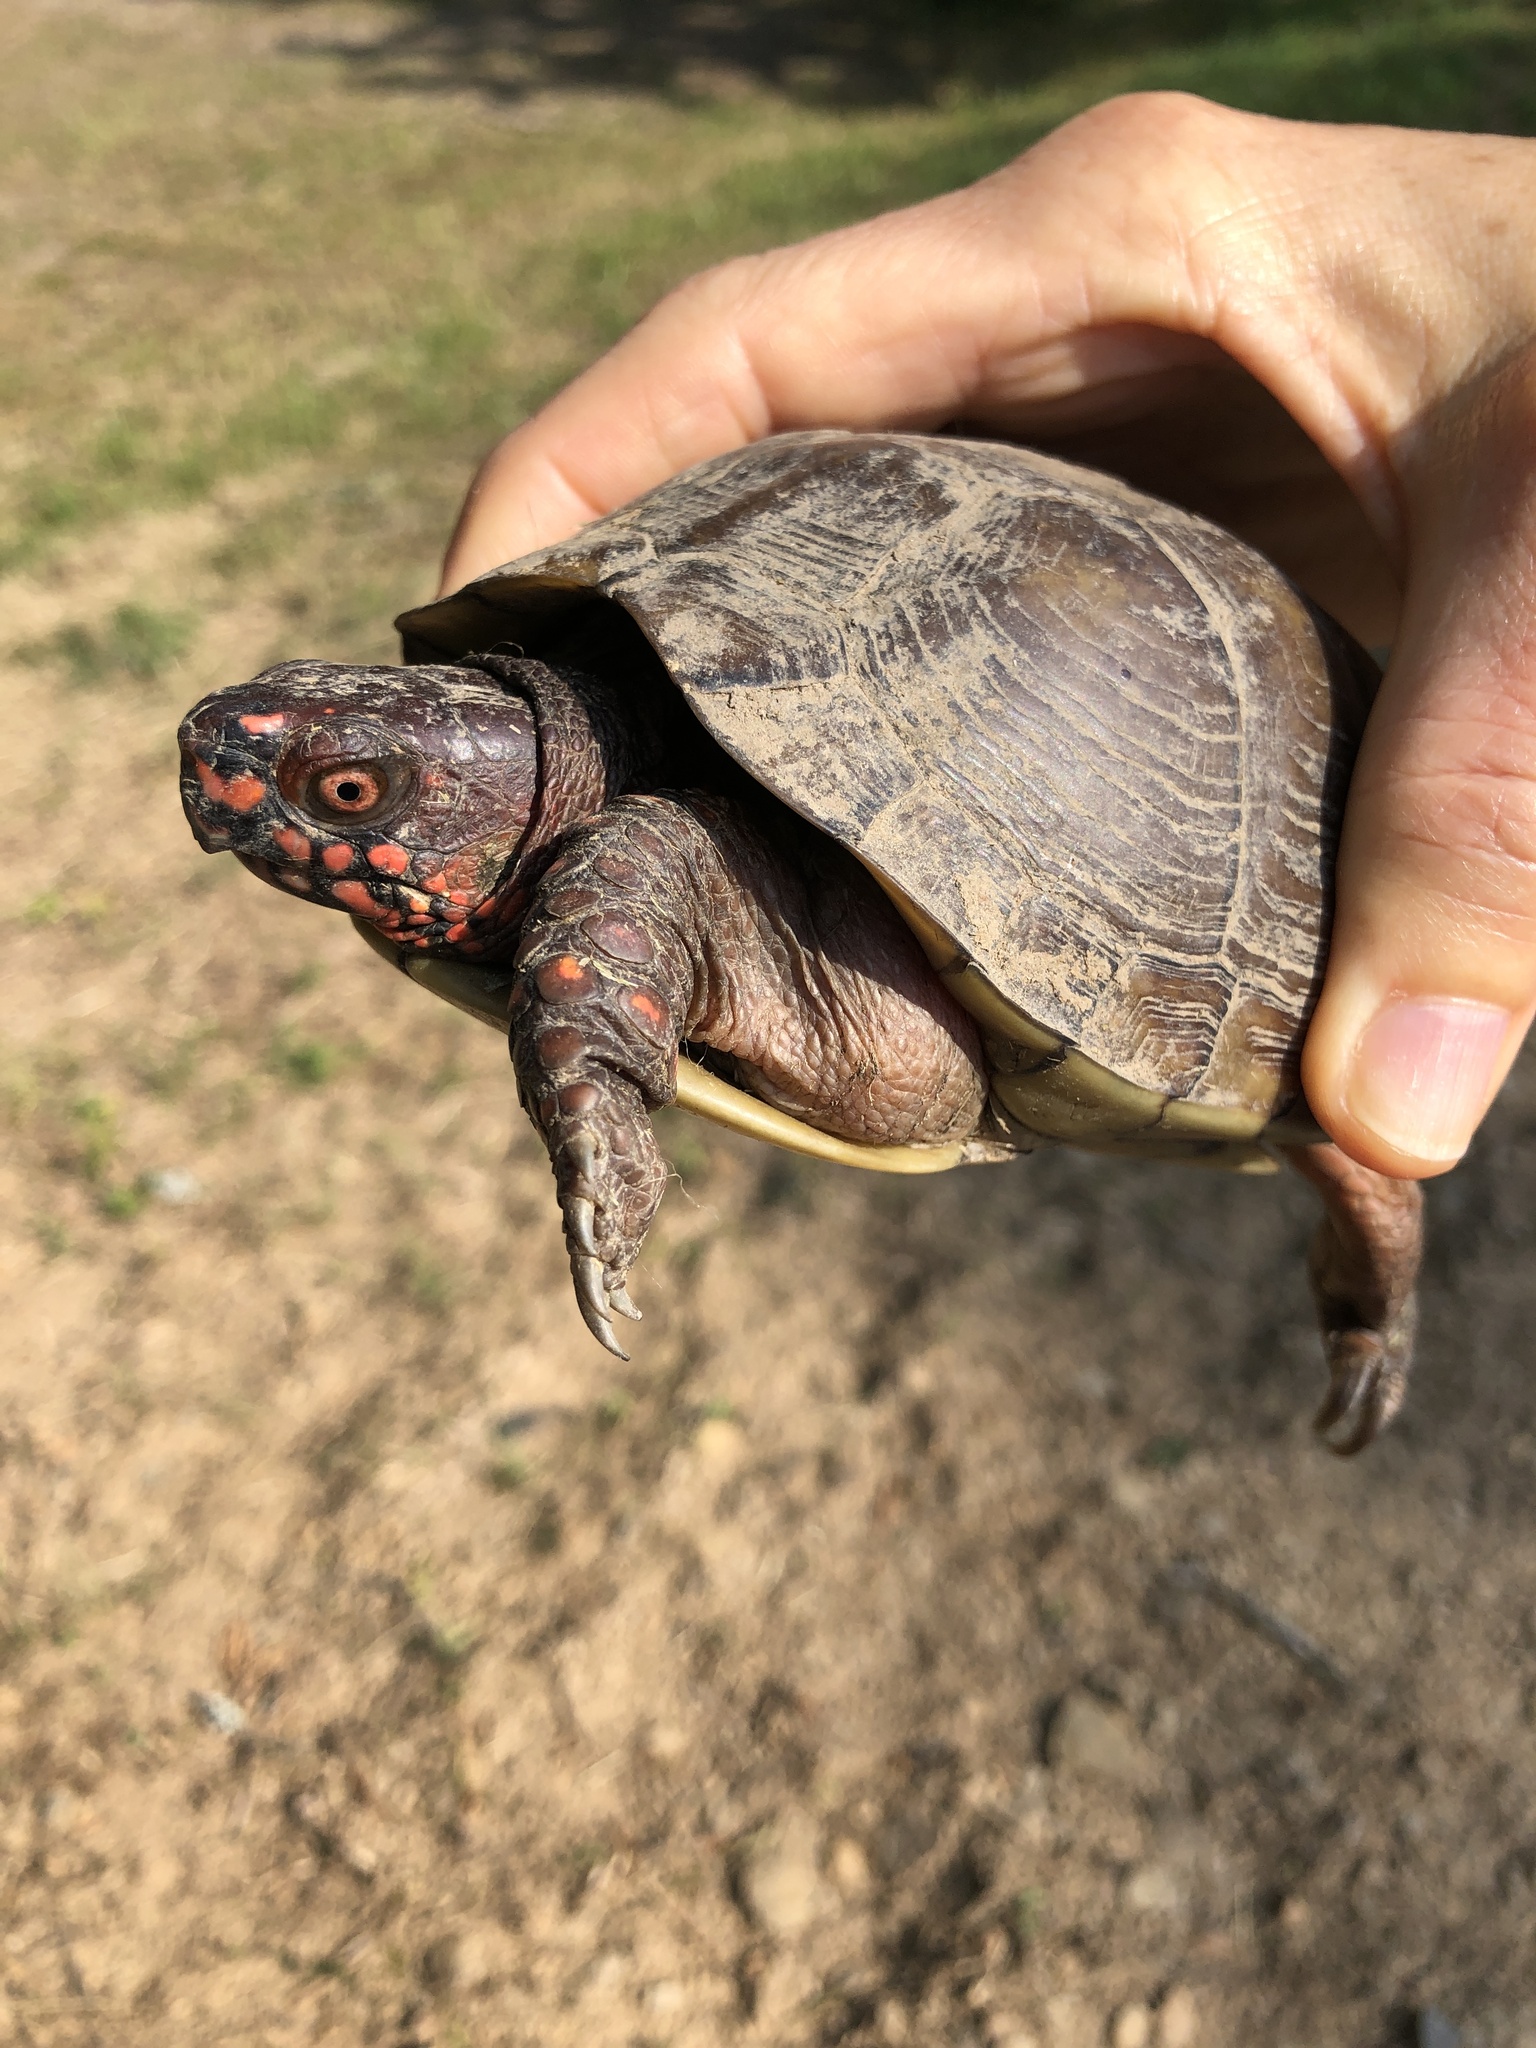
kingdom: Animalia
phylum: Chordata
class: Testudines
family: Emydidae
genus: Terrapene
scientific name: Terrapene carolina
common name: Common box turtle
